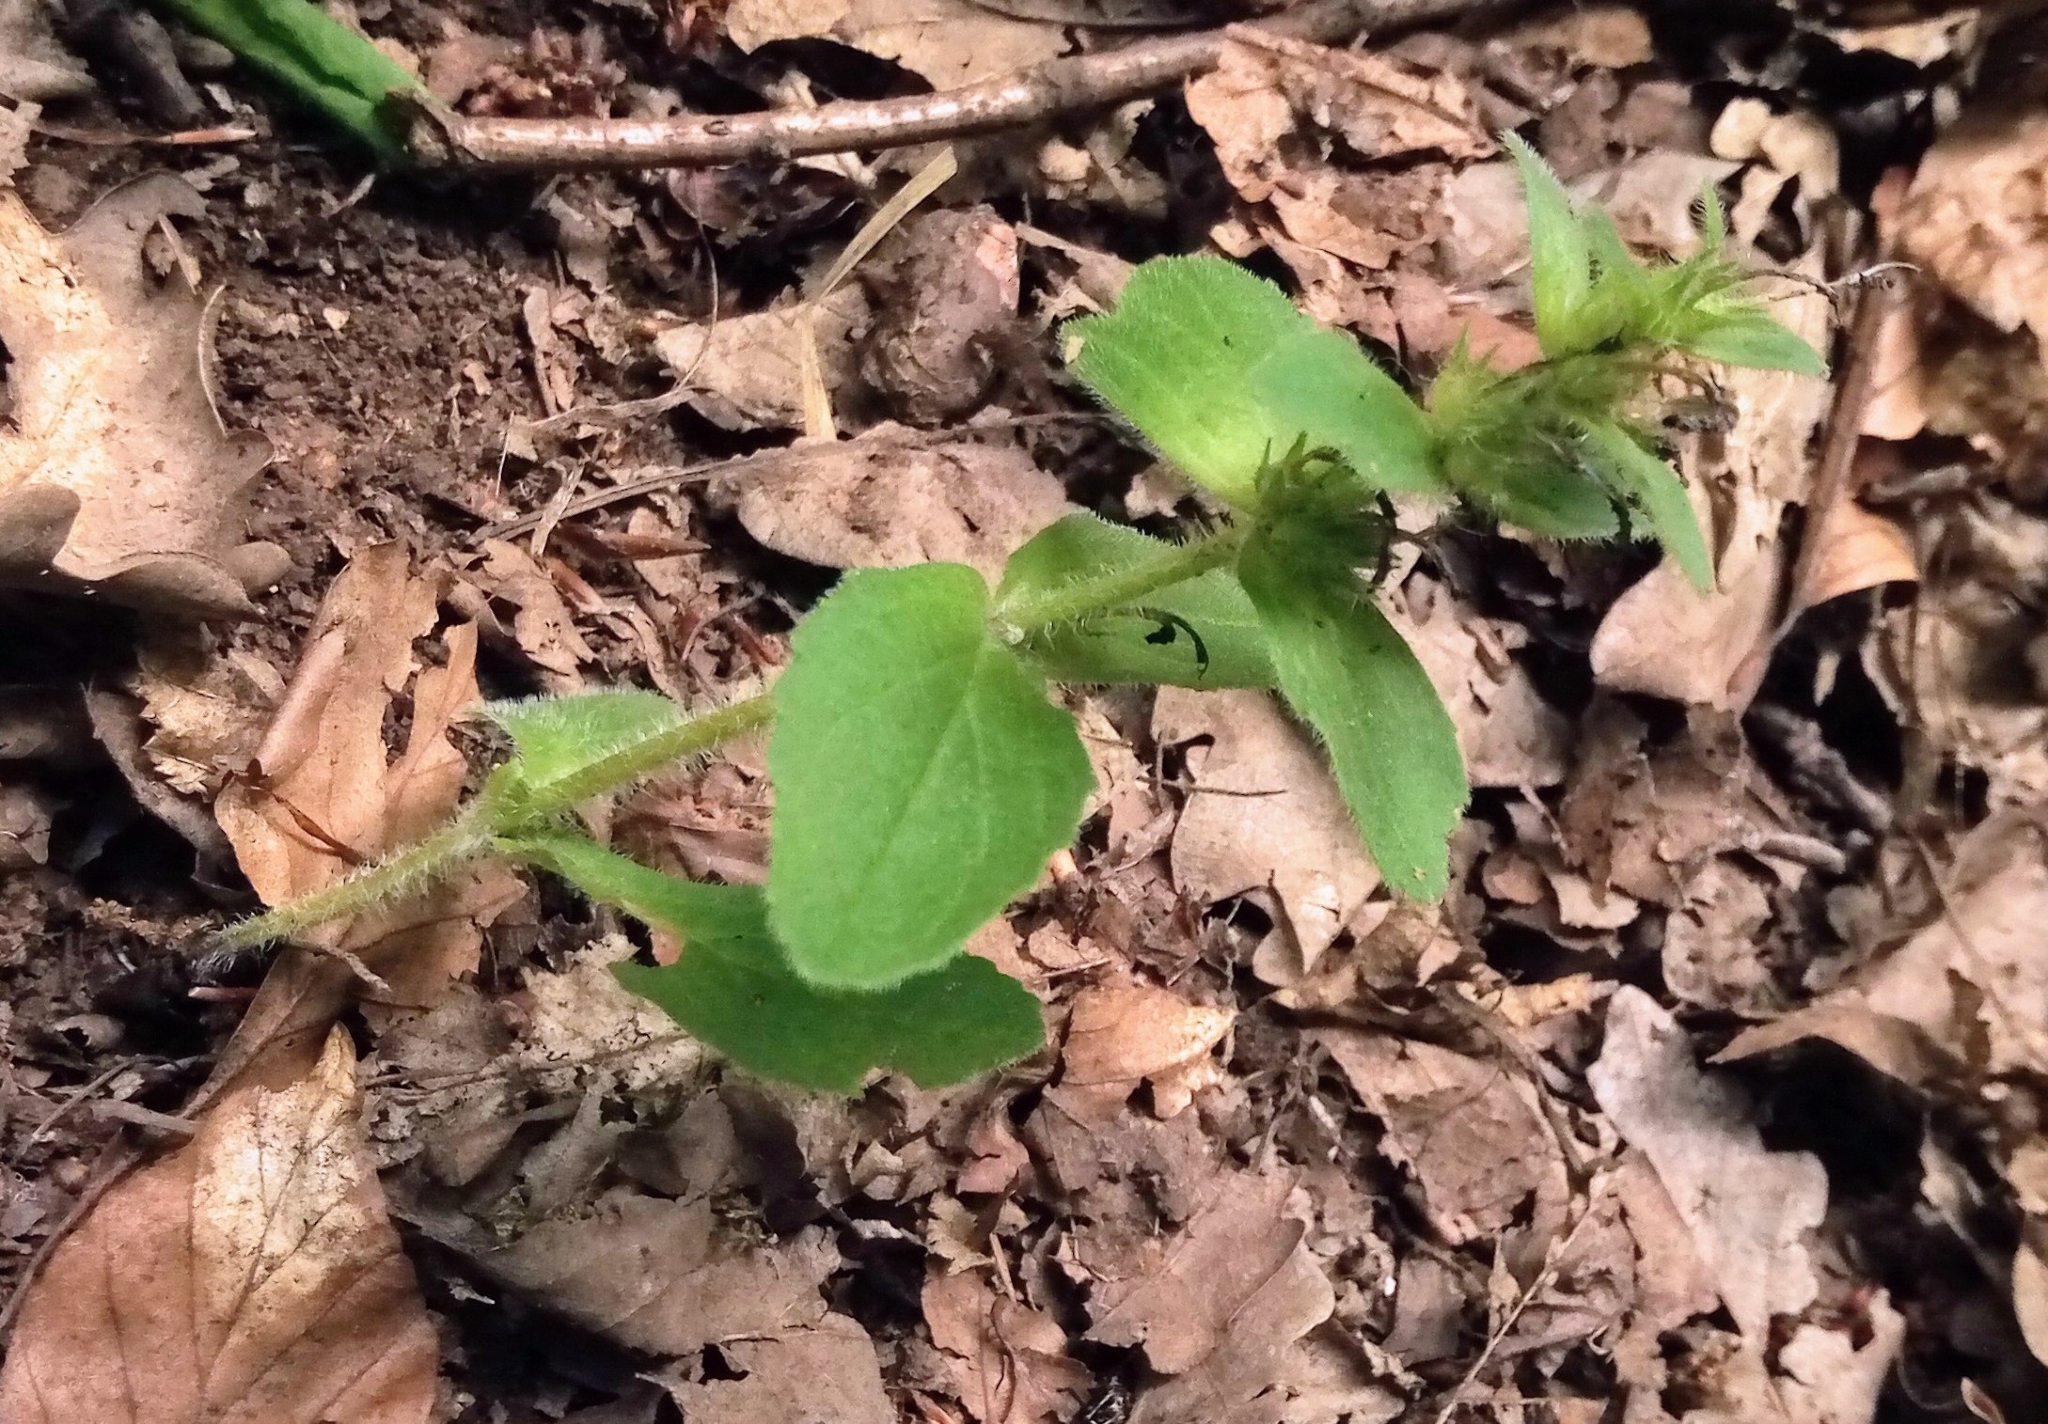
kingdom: Plantae
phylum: Tracheophyta
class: Magnoliopsida
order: Lamiales
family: Lamiaceae
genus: Ajuga
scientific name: Ajuga genevensis
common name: Blue bugle
